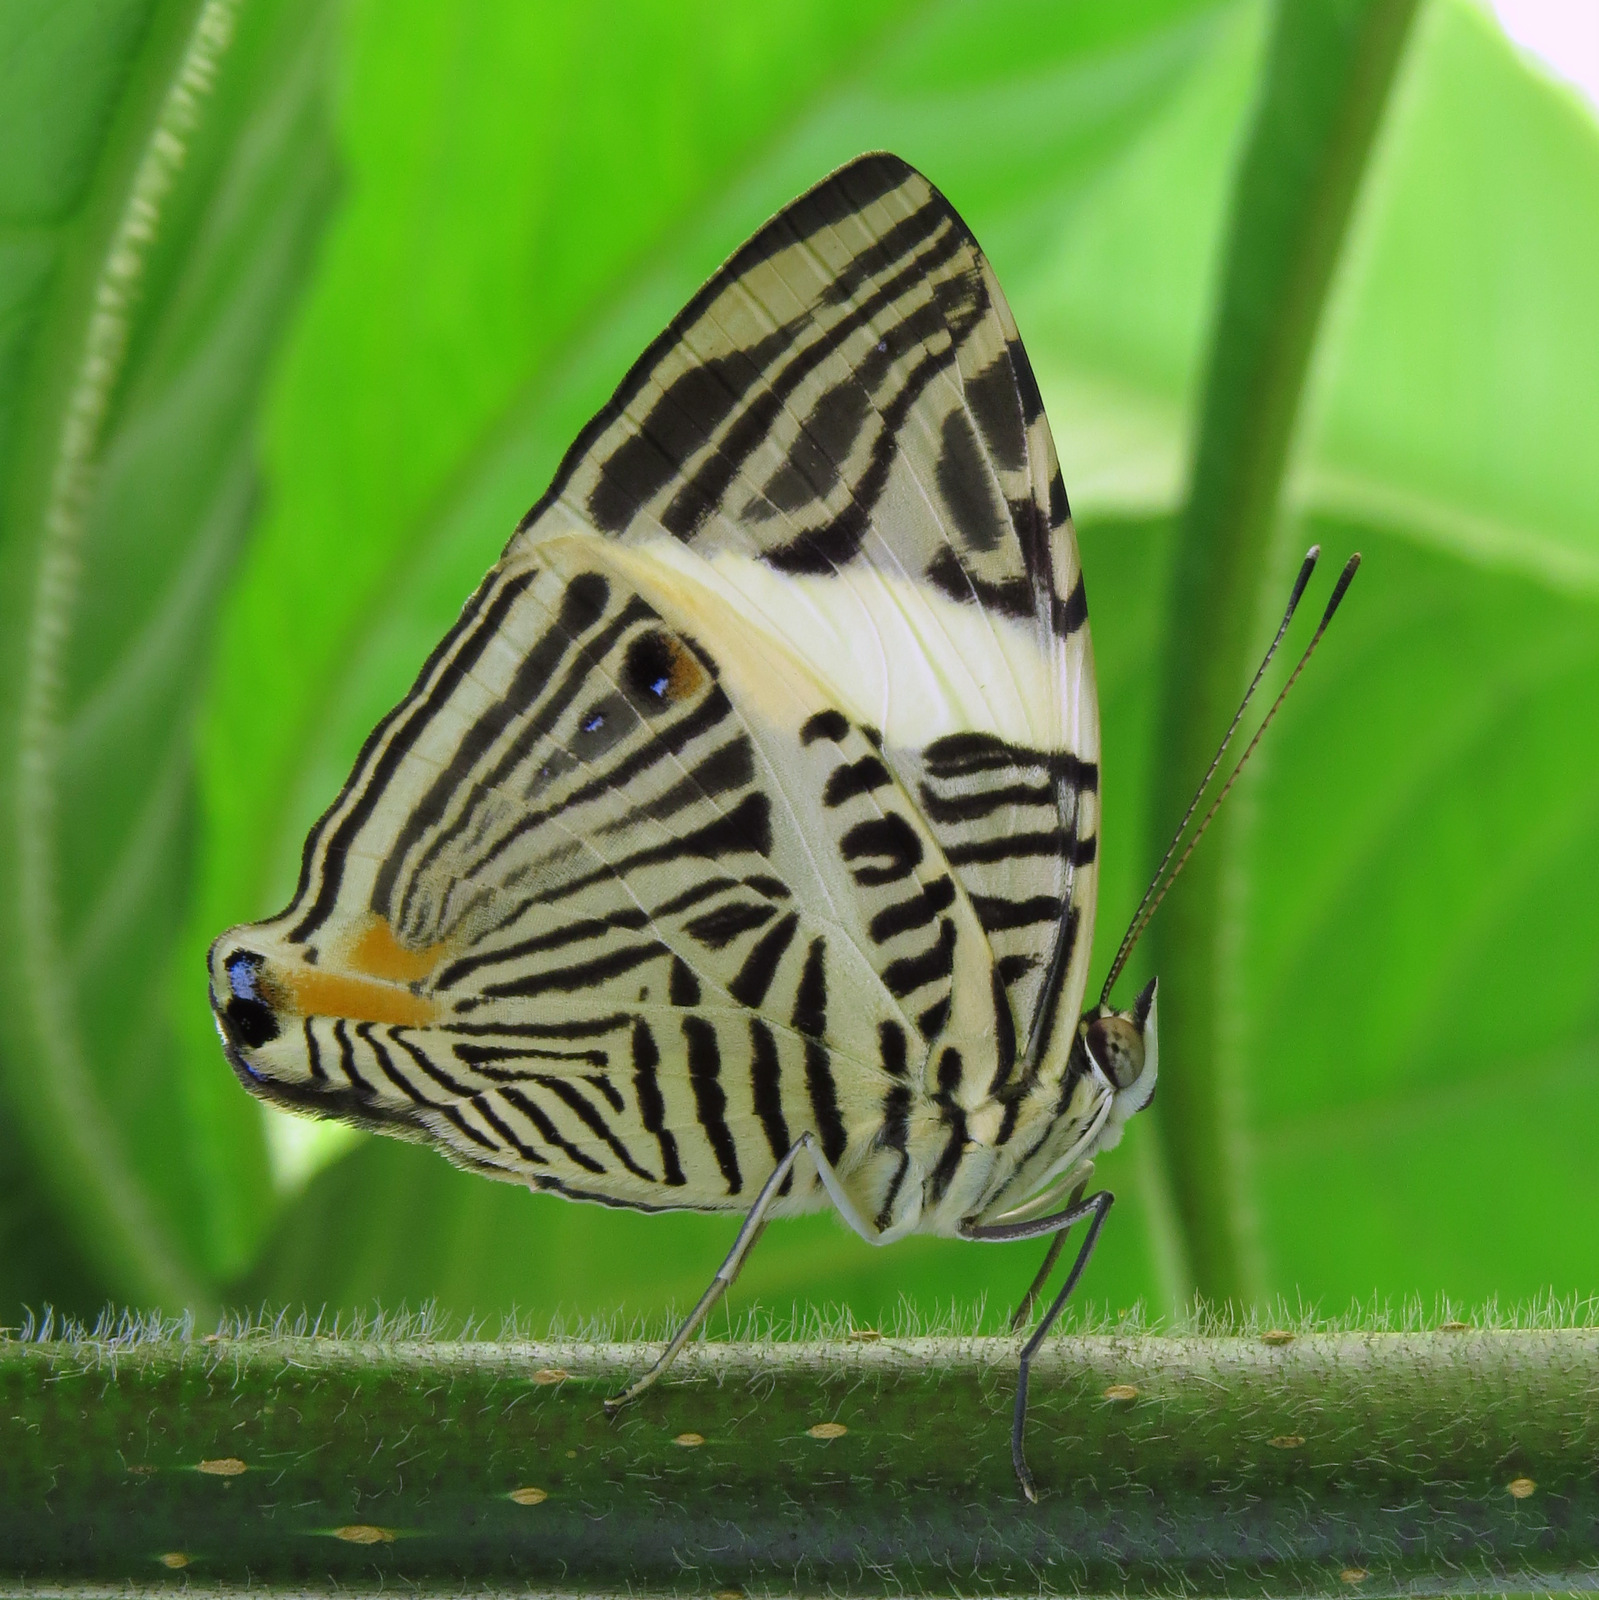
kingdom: Animalia
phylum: Arthropoda
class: Insecta
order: Lepidoptera
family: Nymphalidae
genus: Colobura
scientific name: Colobura dirce
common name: Dirce beauty
